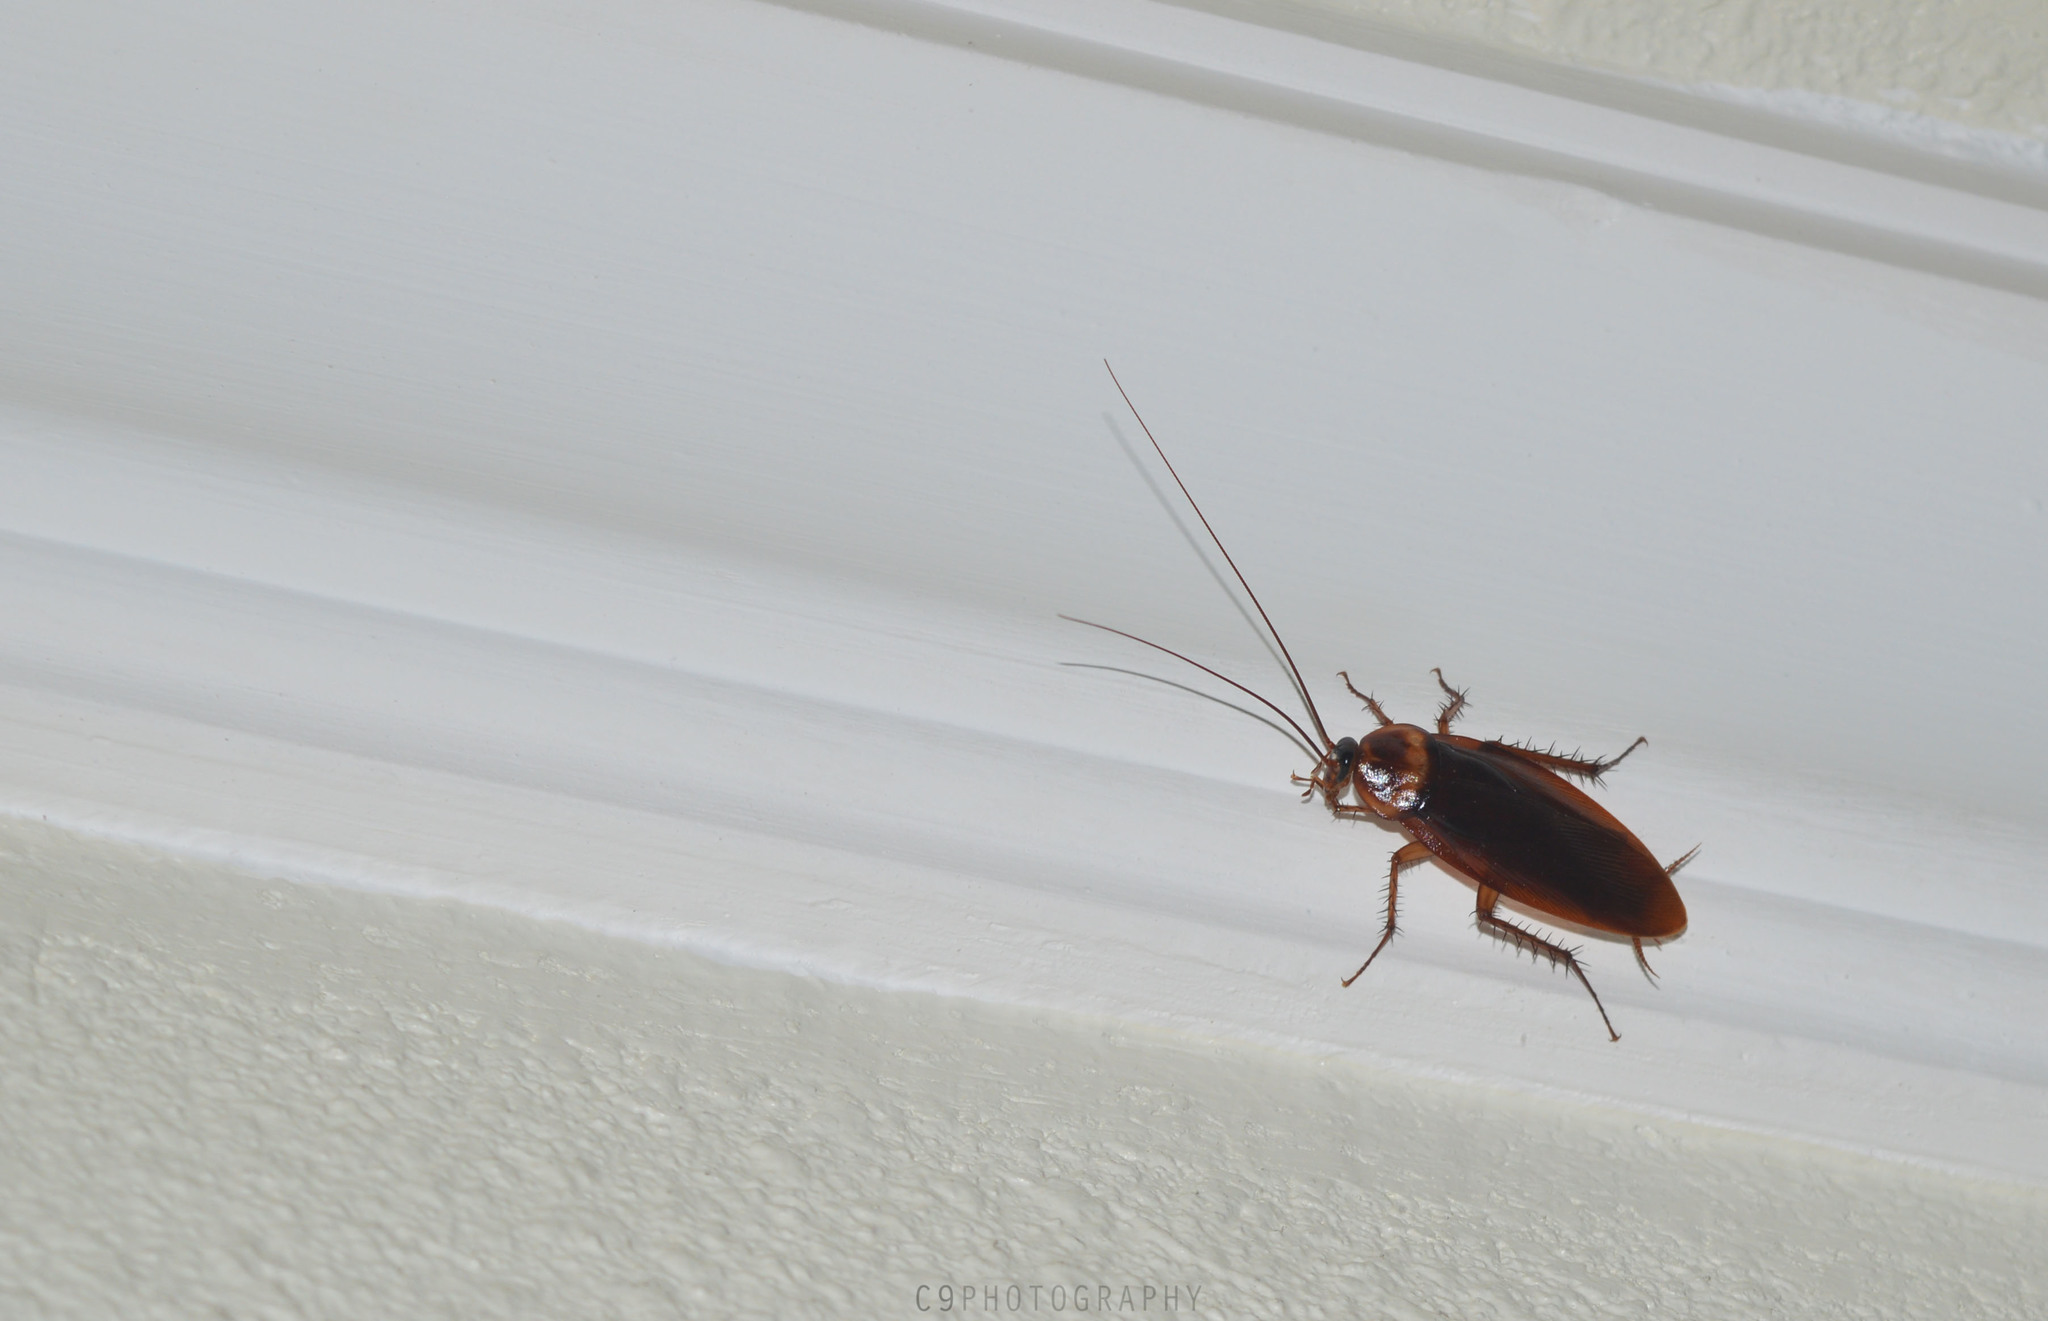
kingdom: Animalia
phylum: Arthropoda
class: Insecta
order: Blattodea
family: Blattidae
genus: Periplaneta
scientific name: Periplaneta americana
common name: American cockroach
